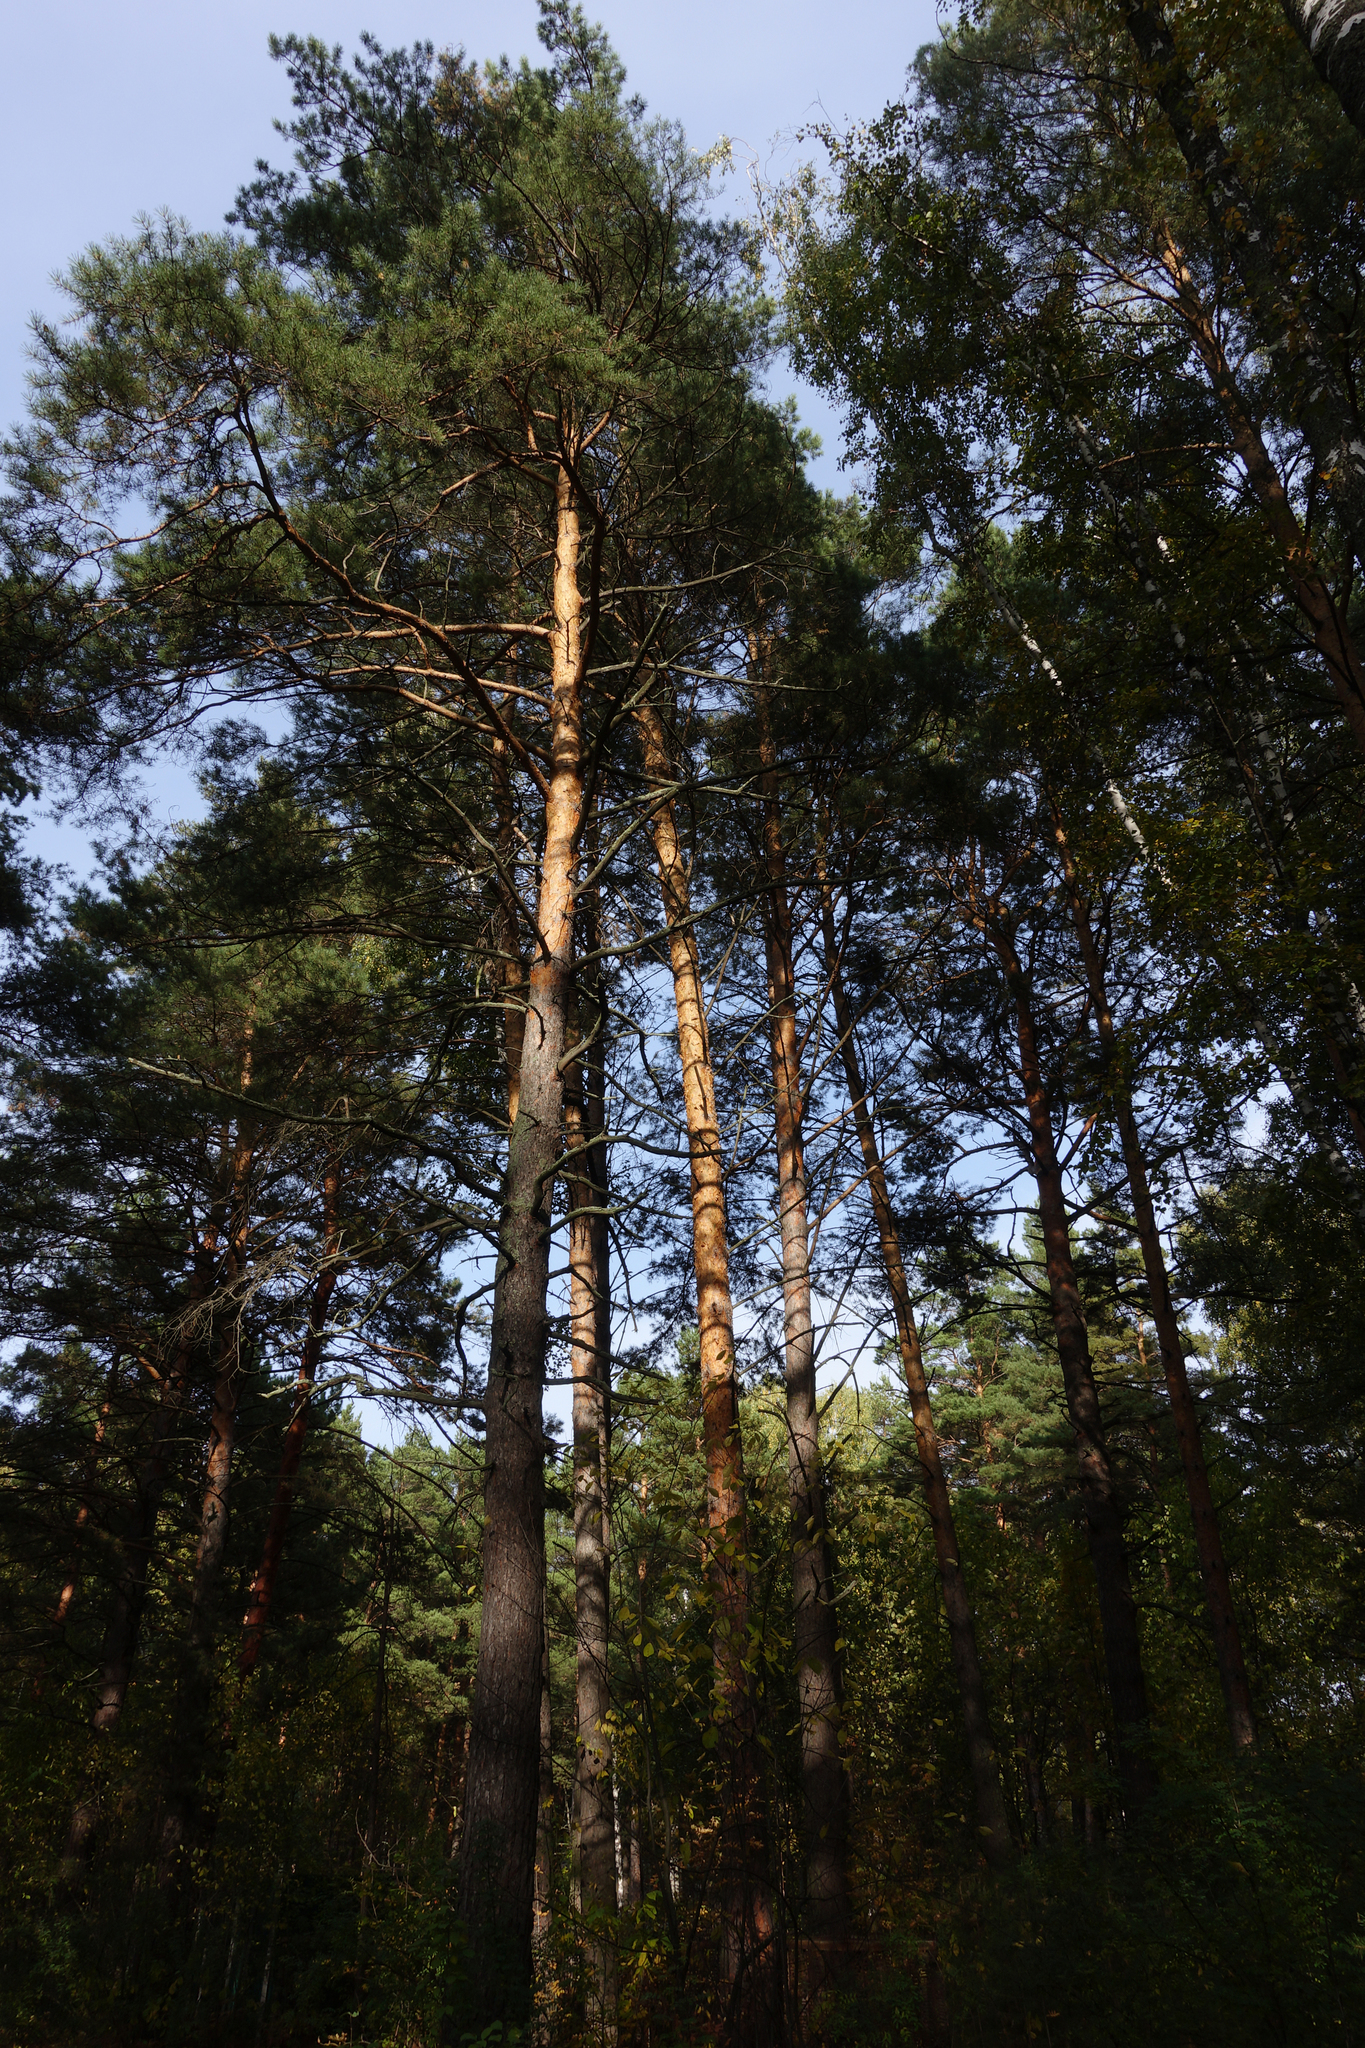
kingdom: Plantae
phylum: Tracheophyta
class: Pinopsida
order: Pinales
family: Pinaceae
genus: Pinus
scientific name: Pinus sylvestris
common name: Scots pine
